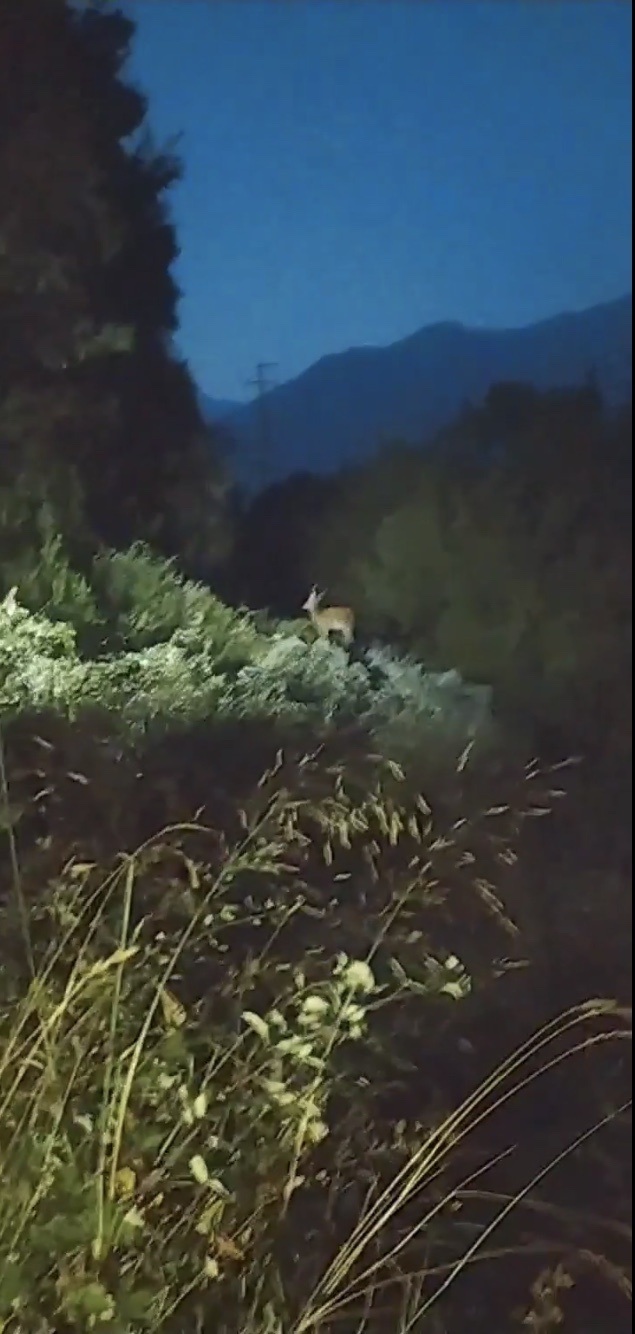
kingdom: Animalia
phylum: Chordata
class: Mammalia
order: Artiodactyla
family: Cervidae
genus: Cervus
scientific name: Cervus elaphus
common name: Red deer
